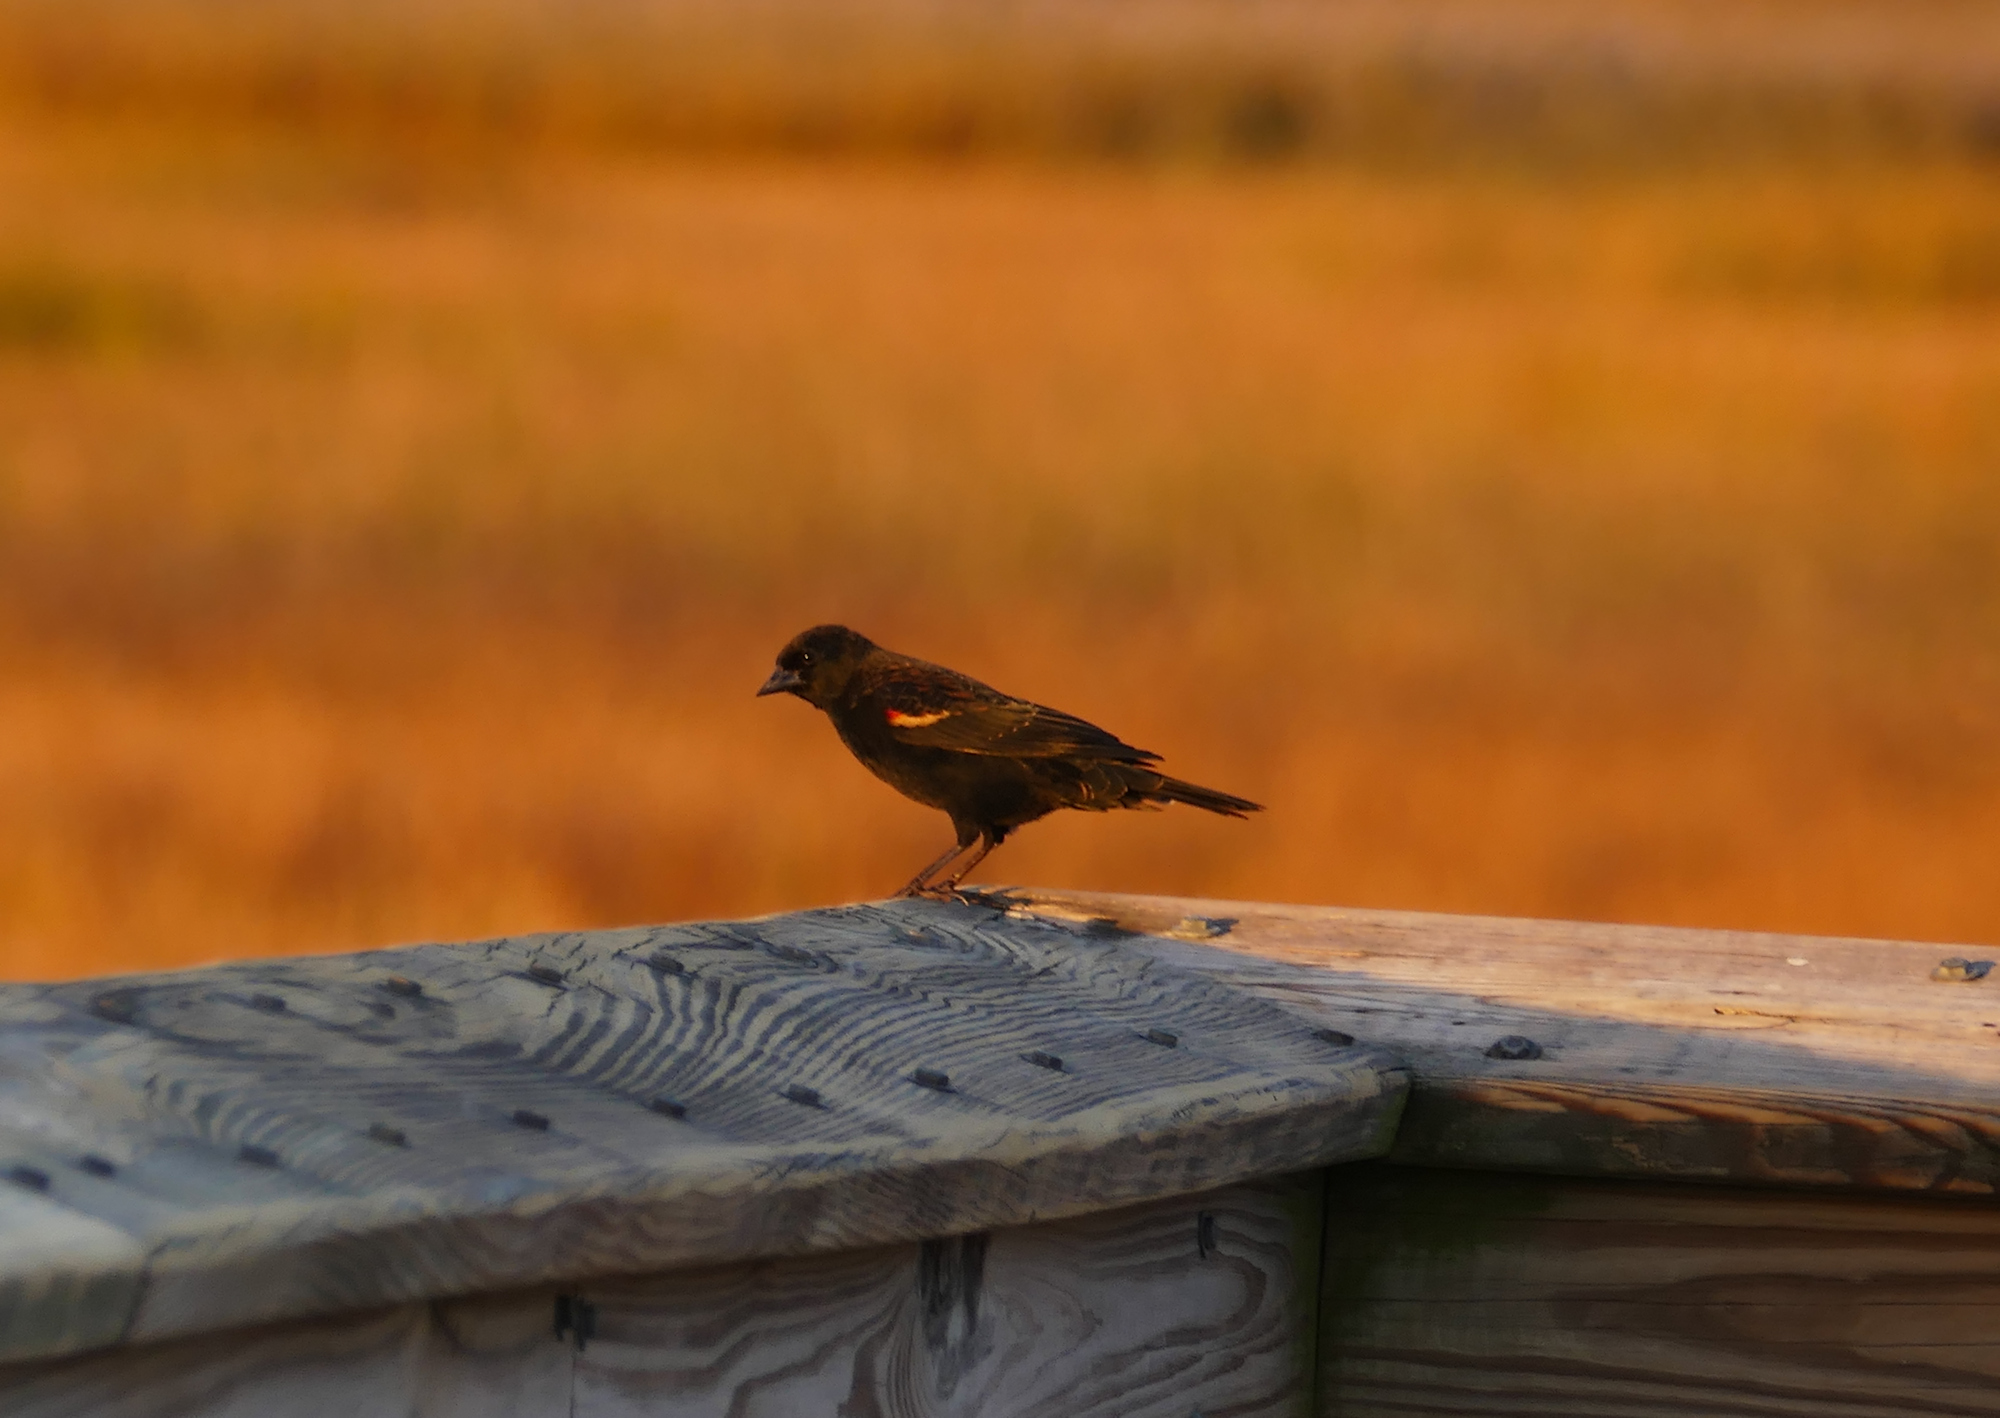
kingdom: Animalia
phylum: Chordata
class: Aves
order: Passeriformes
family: Icteridae
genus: Agelaius
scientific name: Agelaius phoeniceus
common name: Red-winged blackbird
